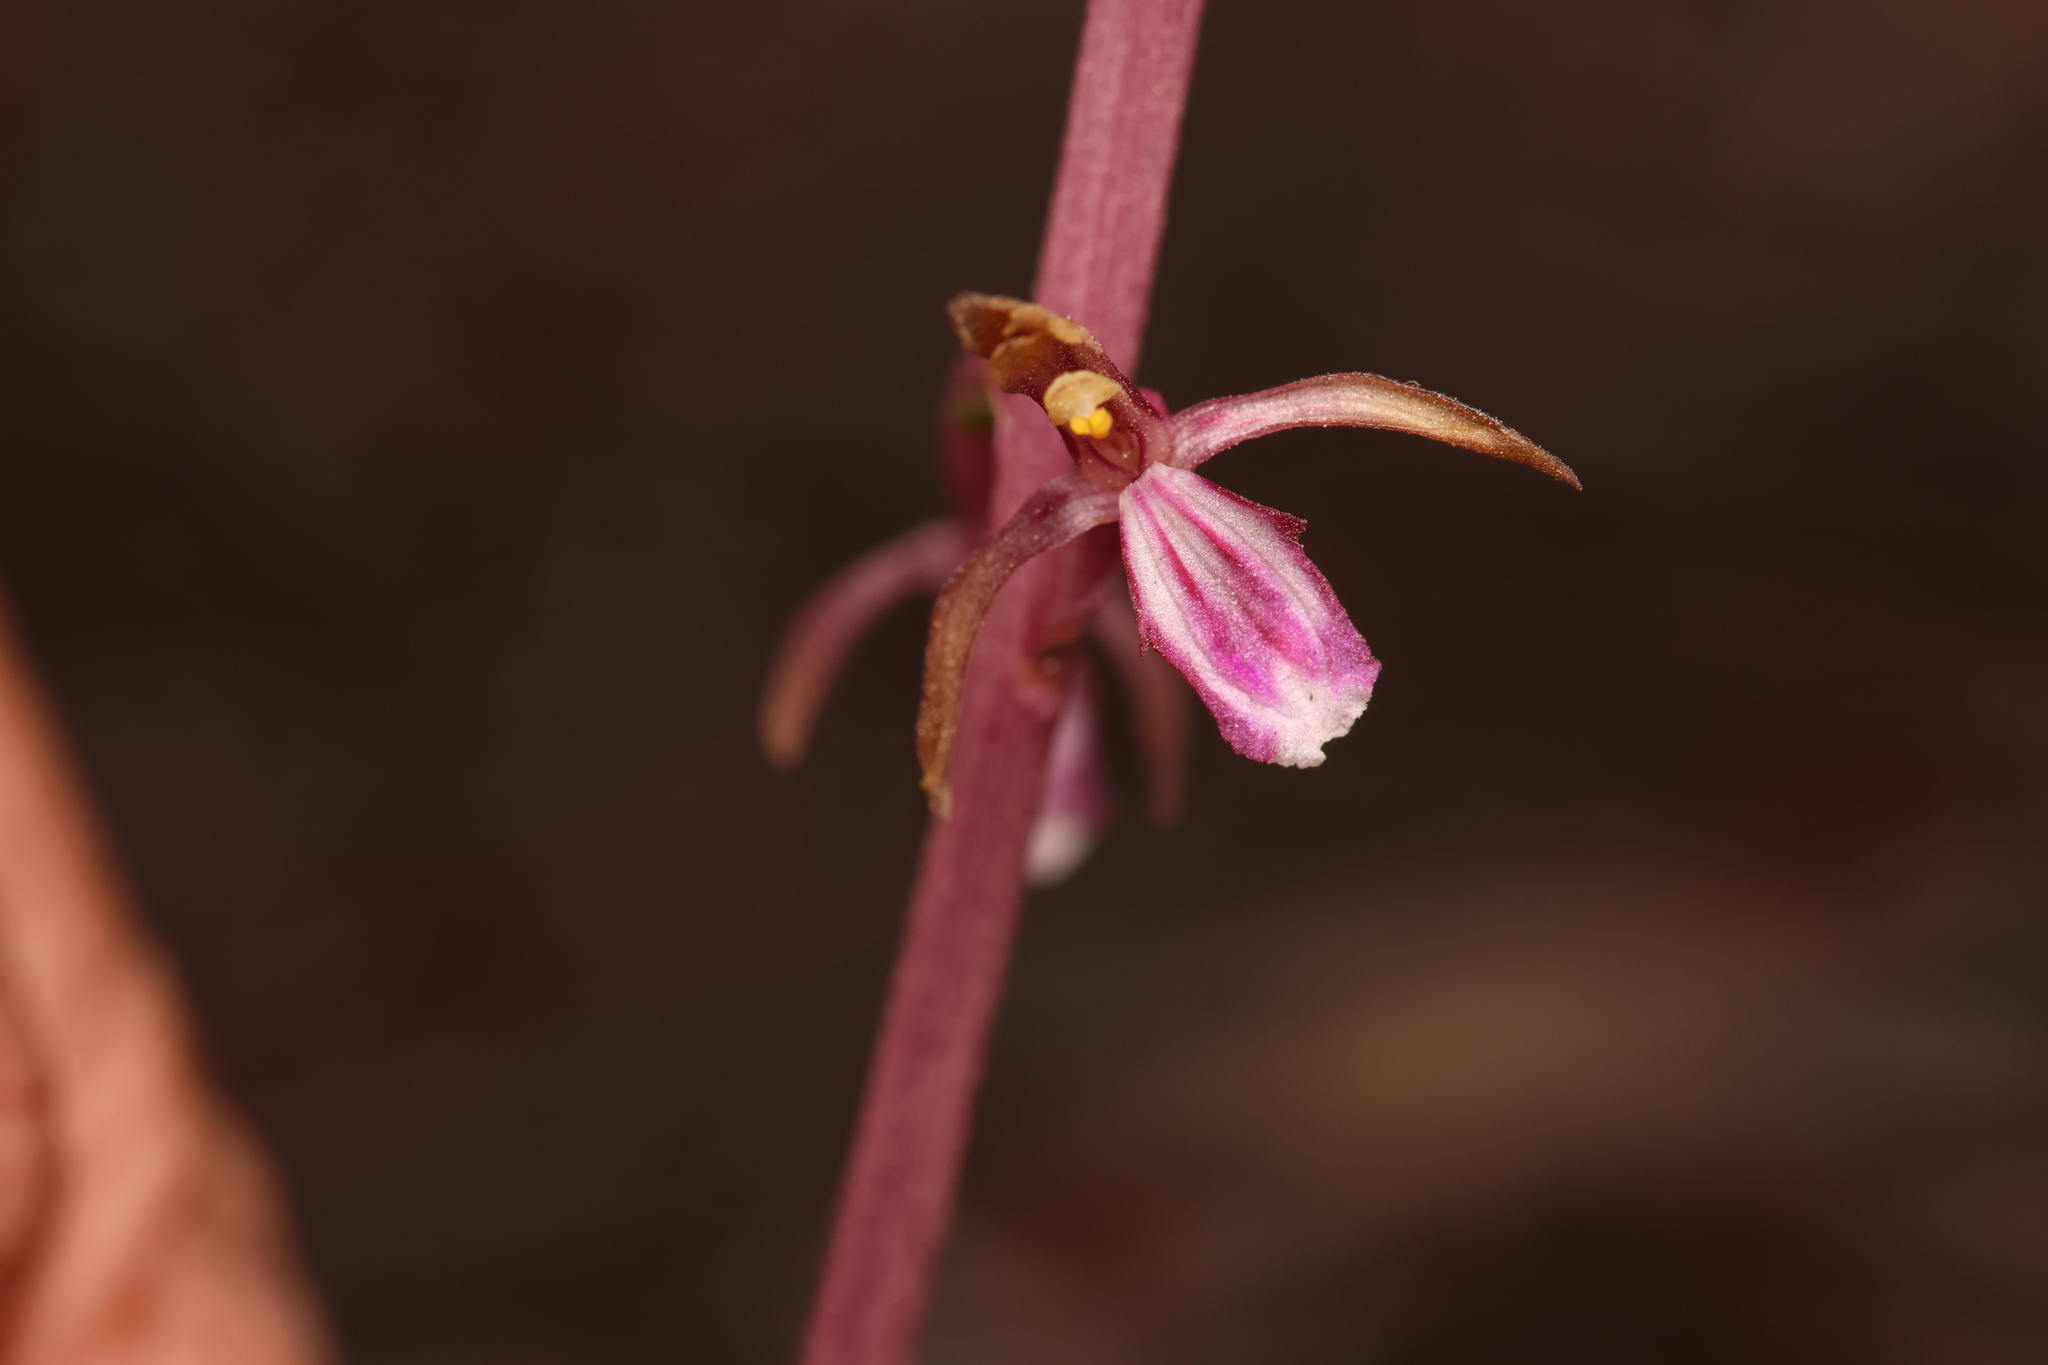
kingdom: Plantae
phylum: Tracheophyta
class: Liliopsida
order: Asparagales
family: Orchidaceae
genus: Corallorhiza
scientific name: Corallorhiza mertensiana
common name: Pacific coralroot
